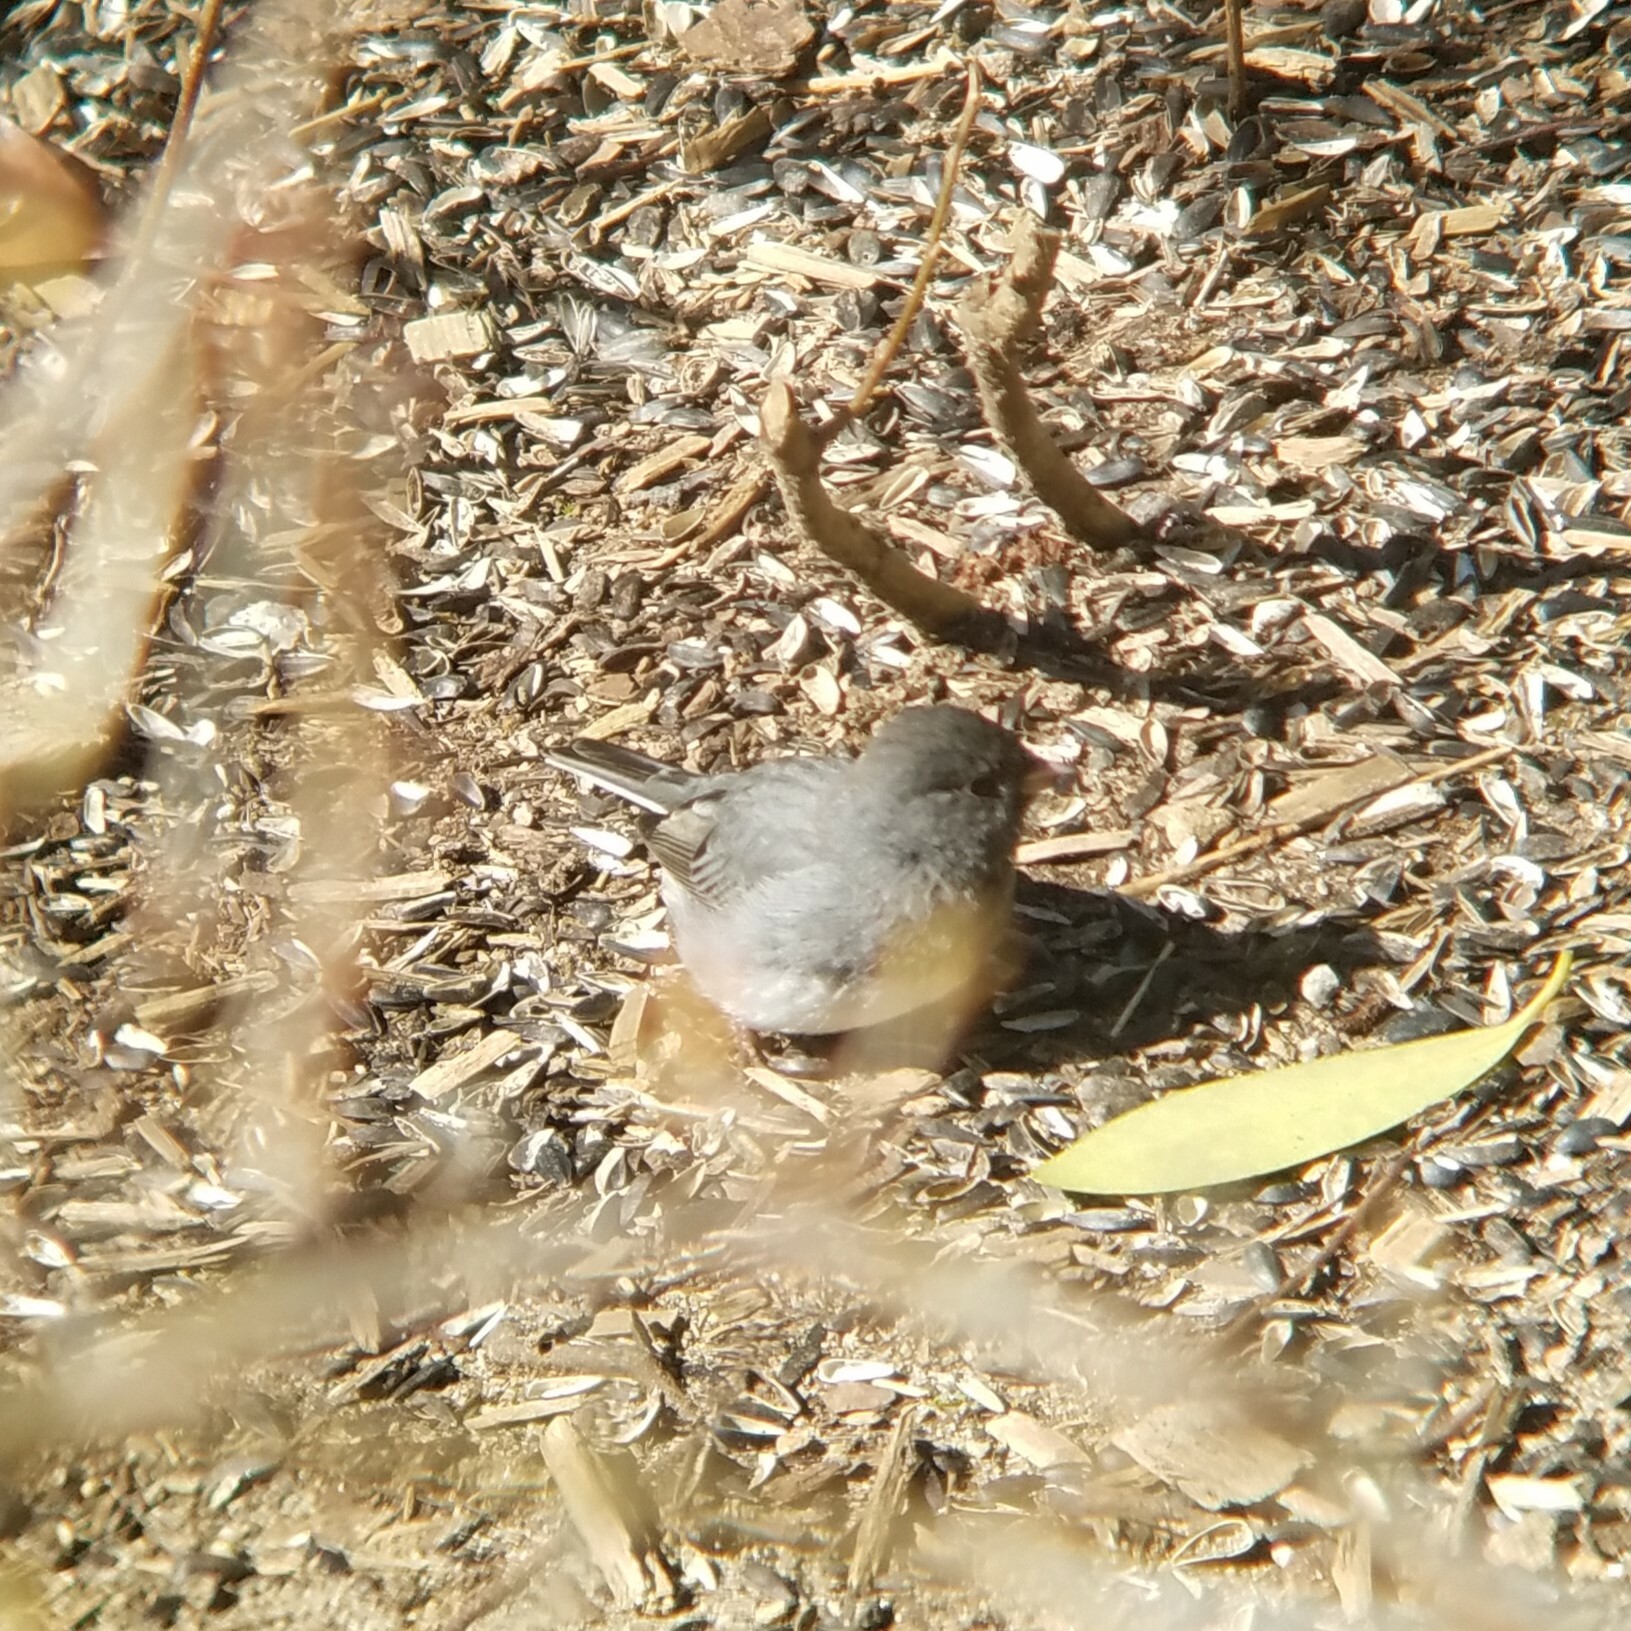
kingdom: Animalia
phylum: Chordata
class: Aves
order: Passeriformes
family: Passerellidae
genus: Junco
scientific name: Junco hyemalis
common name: Dark-eyed junco
